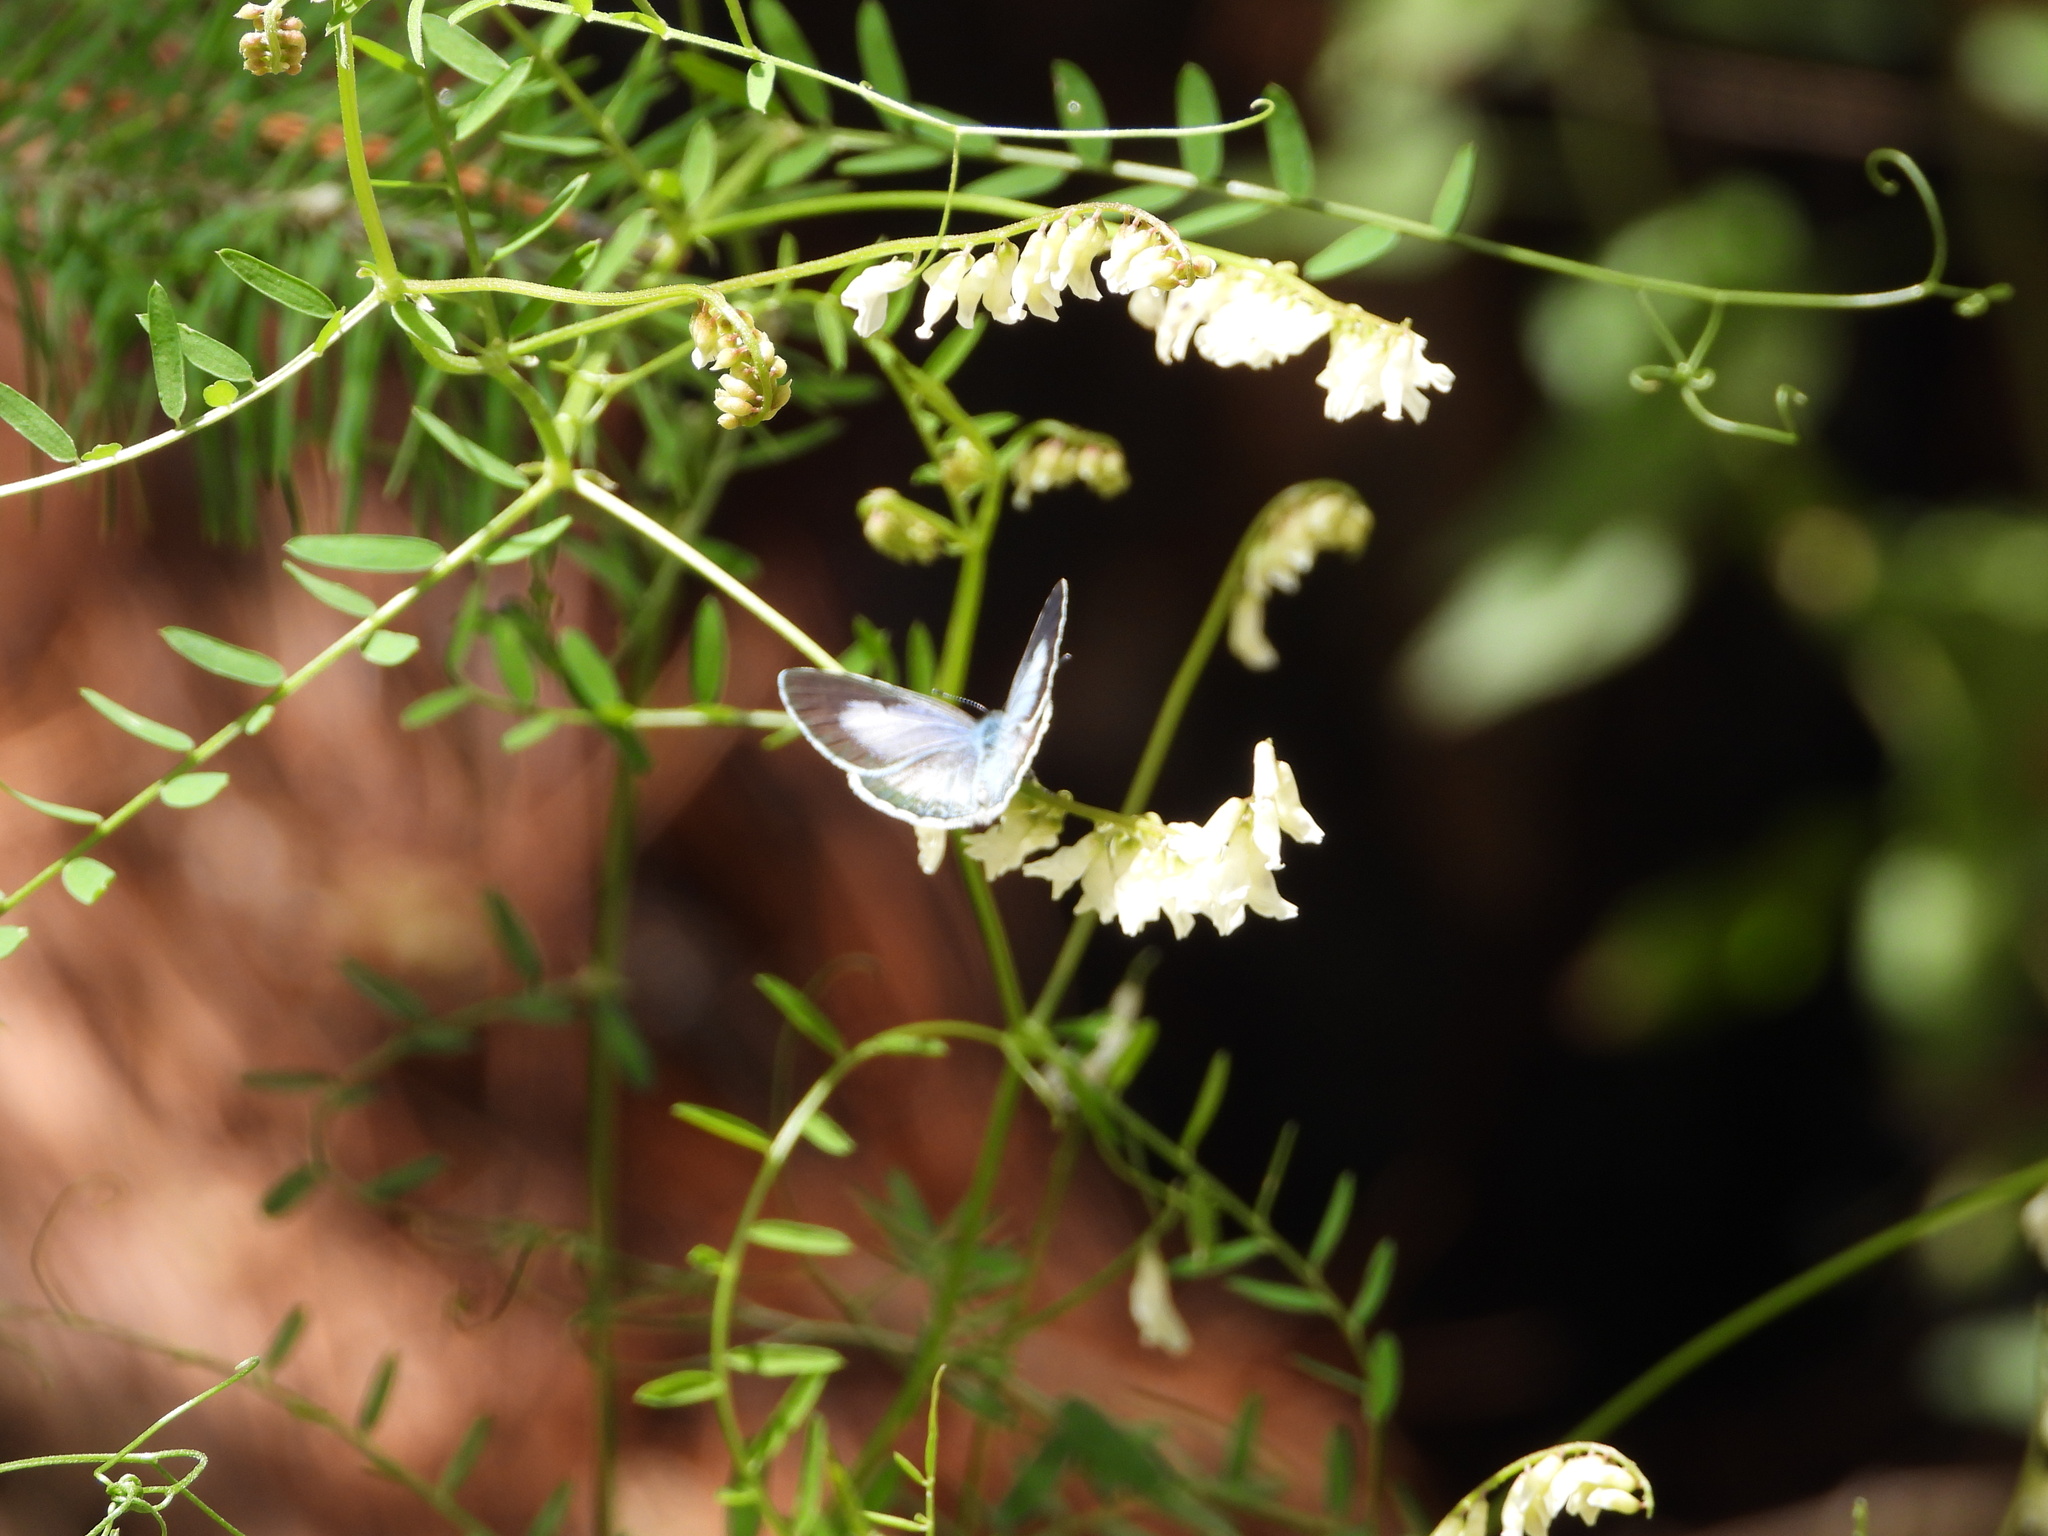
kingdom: Animalia
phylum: Arthropoda
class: Insecta
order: Lepidoptera
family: Lycaenidae
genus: Celastrina
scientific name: Celastrina ladon
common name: Spring azure
